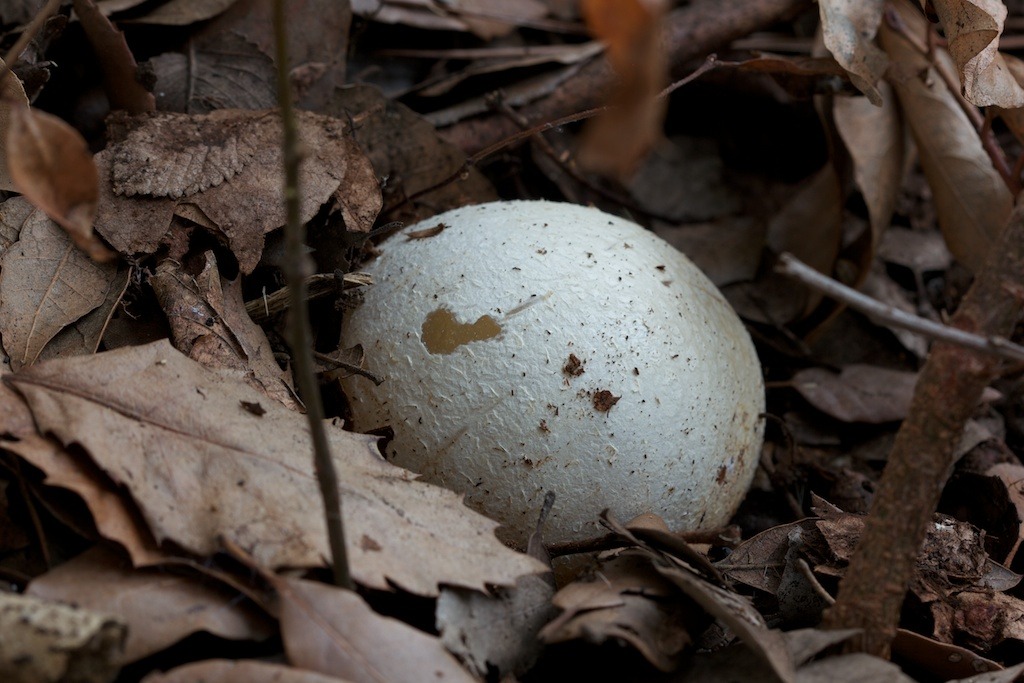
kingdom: Fungi
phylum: Basidiomycota
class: Agaricomycetes
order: Phallales
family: Phallaceae
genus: Phallus
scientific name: Phallus impudicus
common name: Common stinkhorn
